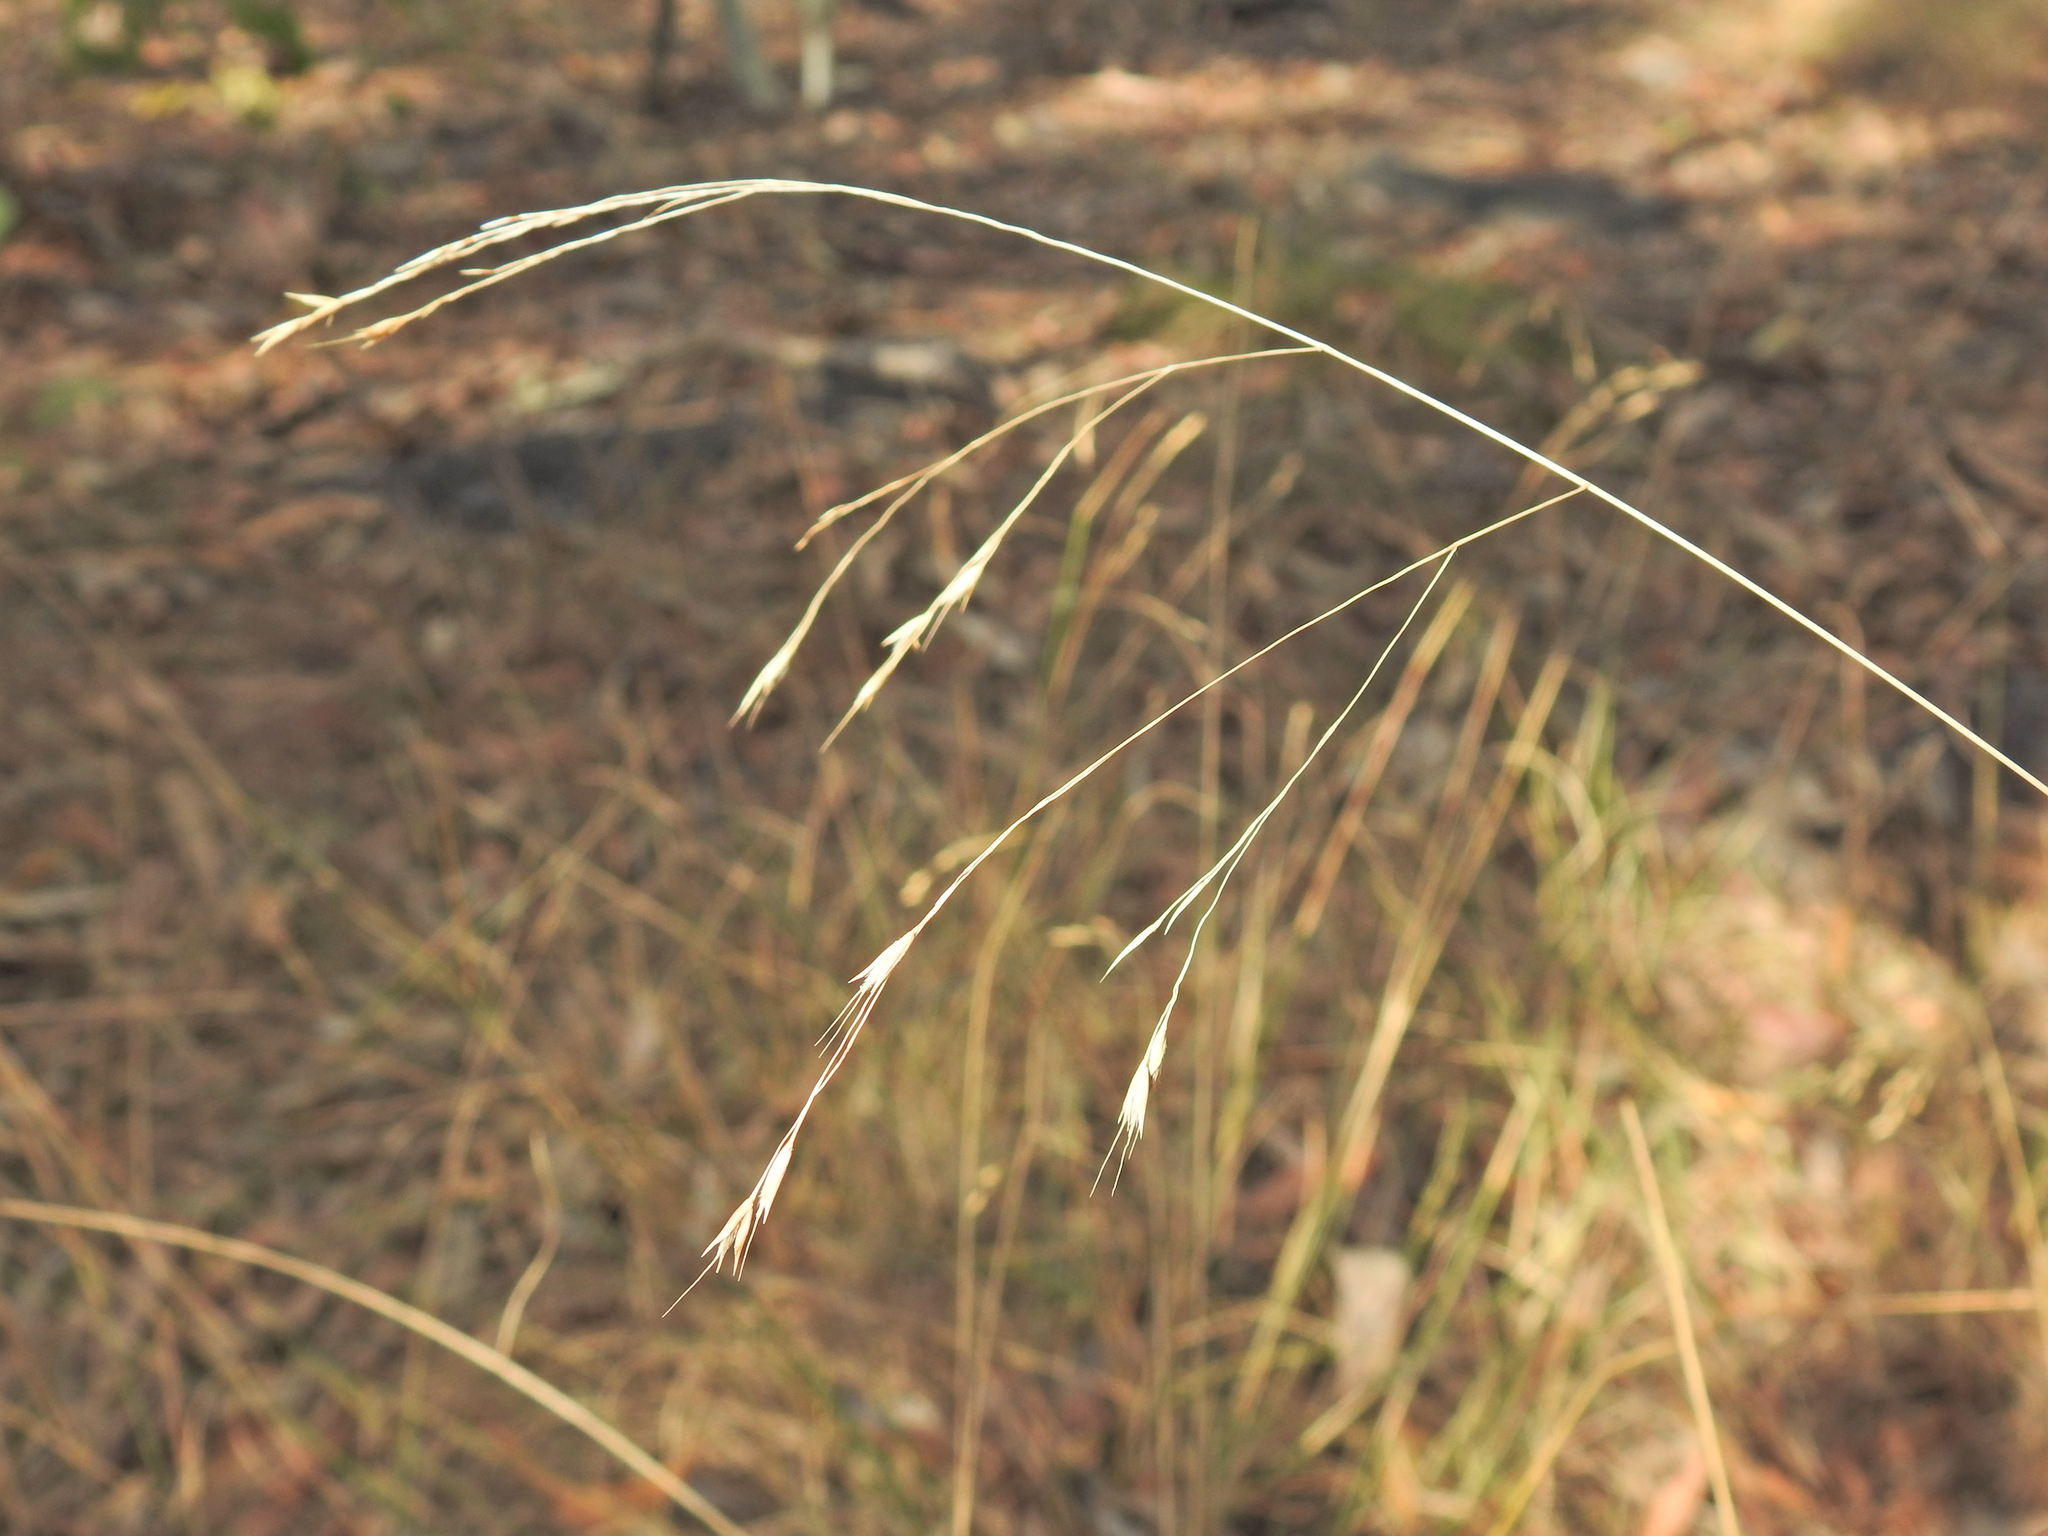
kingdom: Plantae
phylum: Tracheophyta
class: Liliopsida
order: Poales
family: Poaceae
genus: Eriachne
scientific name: Eriachne pallescens
